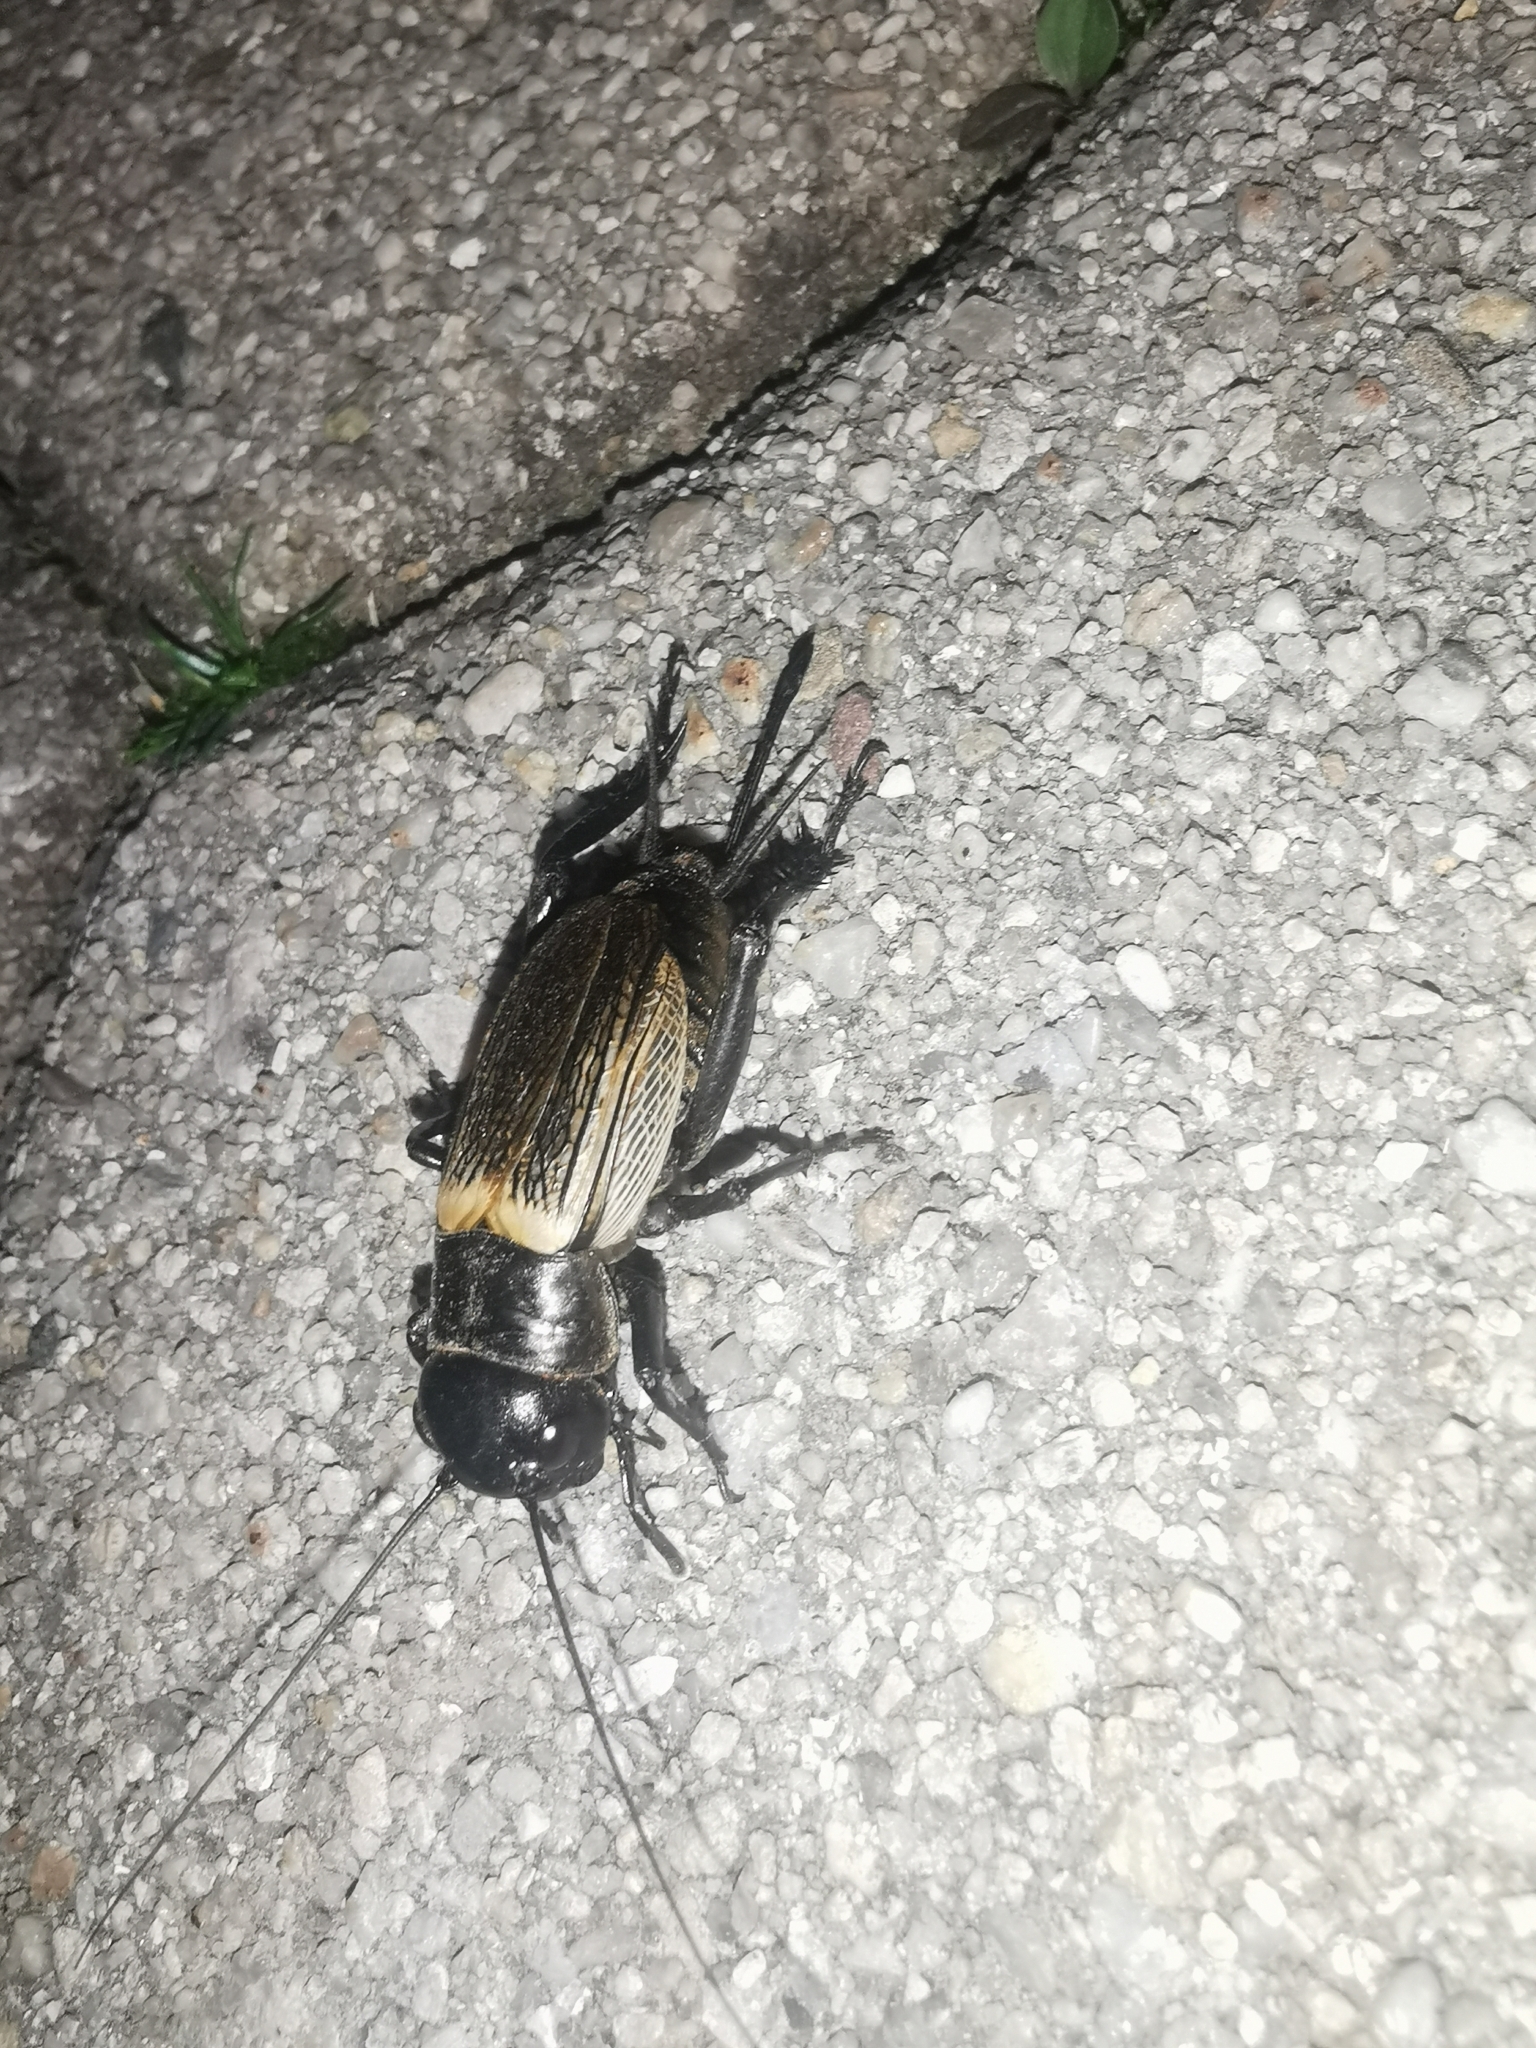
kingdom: Animalia
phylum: Arthropoda
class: Insecta
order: Orthoptera
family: Gryllidae
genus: Gryllus
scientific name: Gryllus campestris
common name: Field cricket
